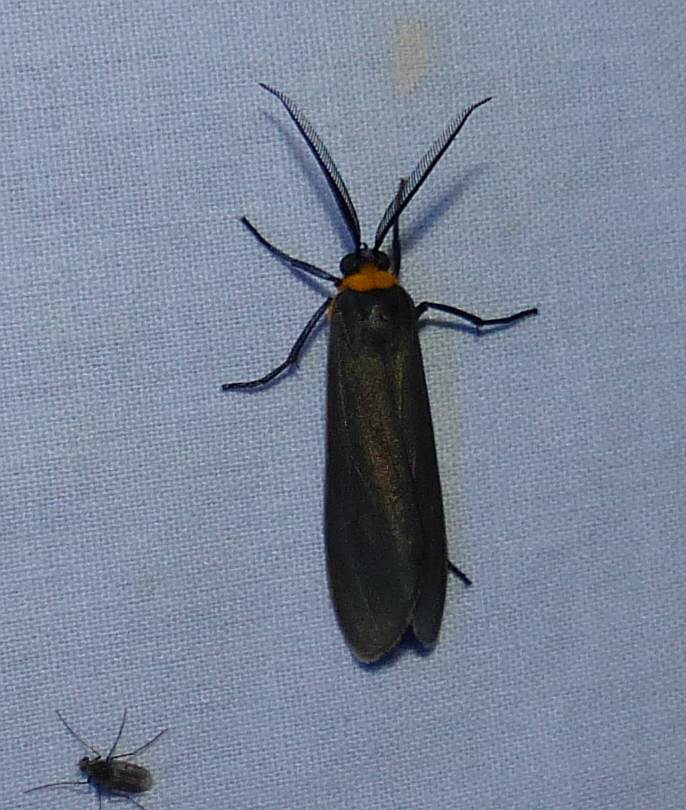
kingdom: Animalia
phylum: Arthropoda
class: Insecta
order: Lepidoptera
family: Erebidae
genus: Cisseps
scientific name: Cisseps fulvicollis
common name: Yellow-collared scape moth
